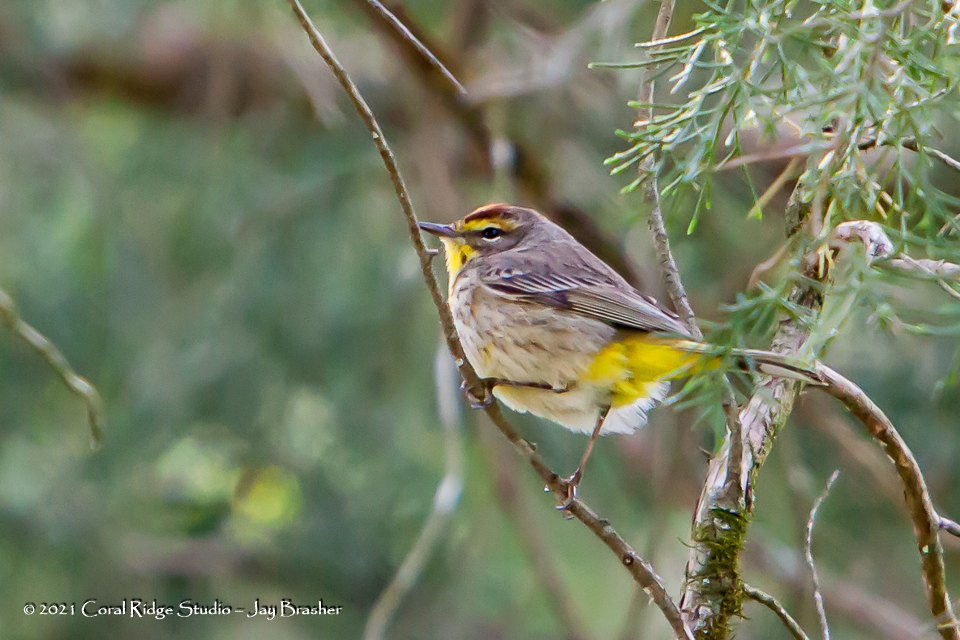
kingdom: Animalia
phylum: Chordata
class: Aves
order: Passeriformes
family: Parulidae
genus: Setophaga
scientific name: Setophaga palmarum
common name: Palm warbler
